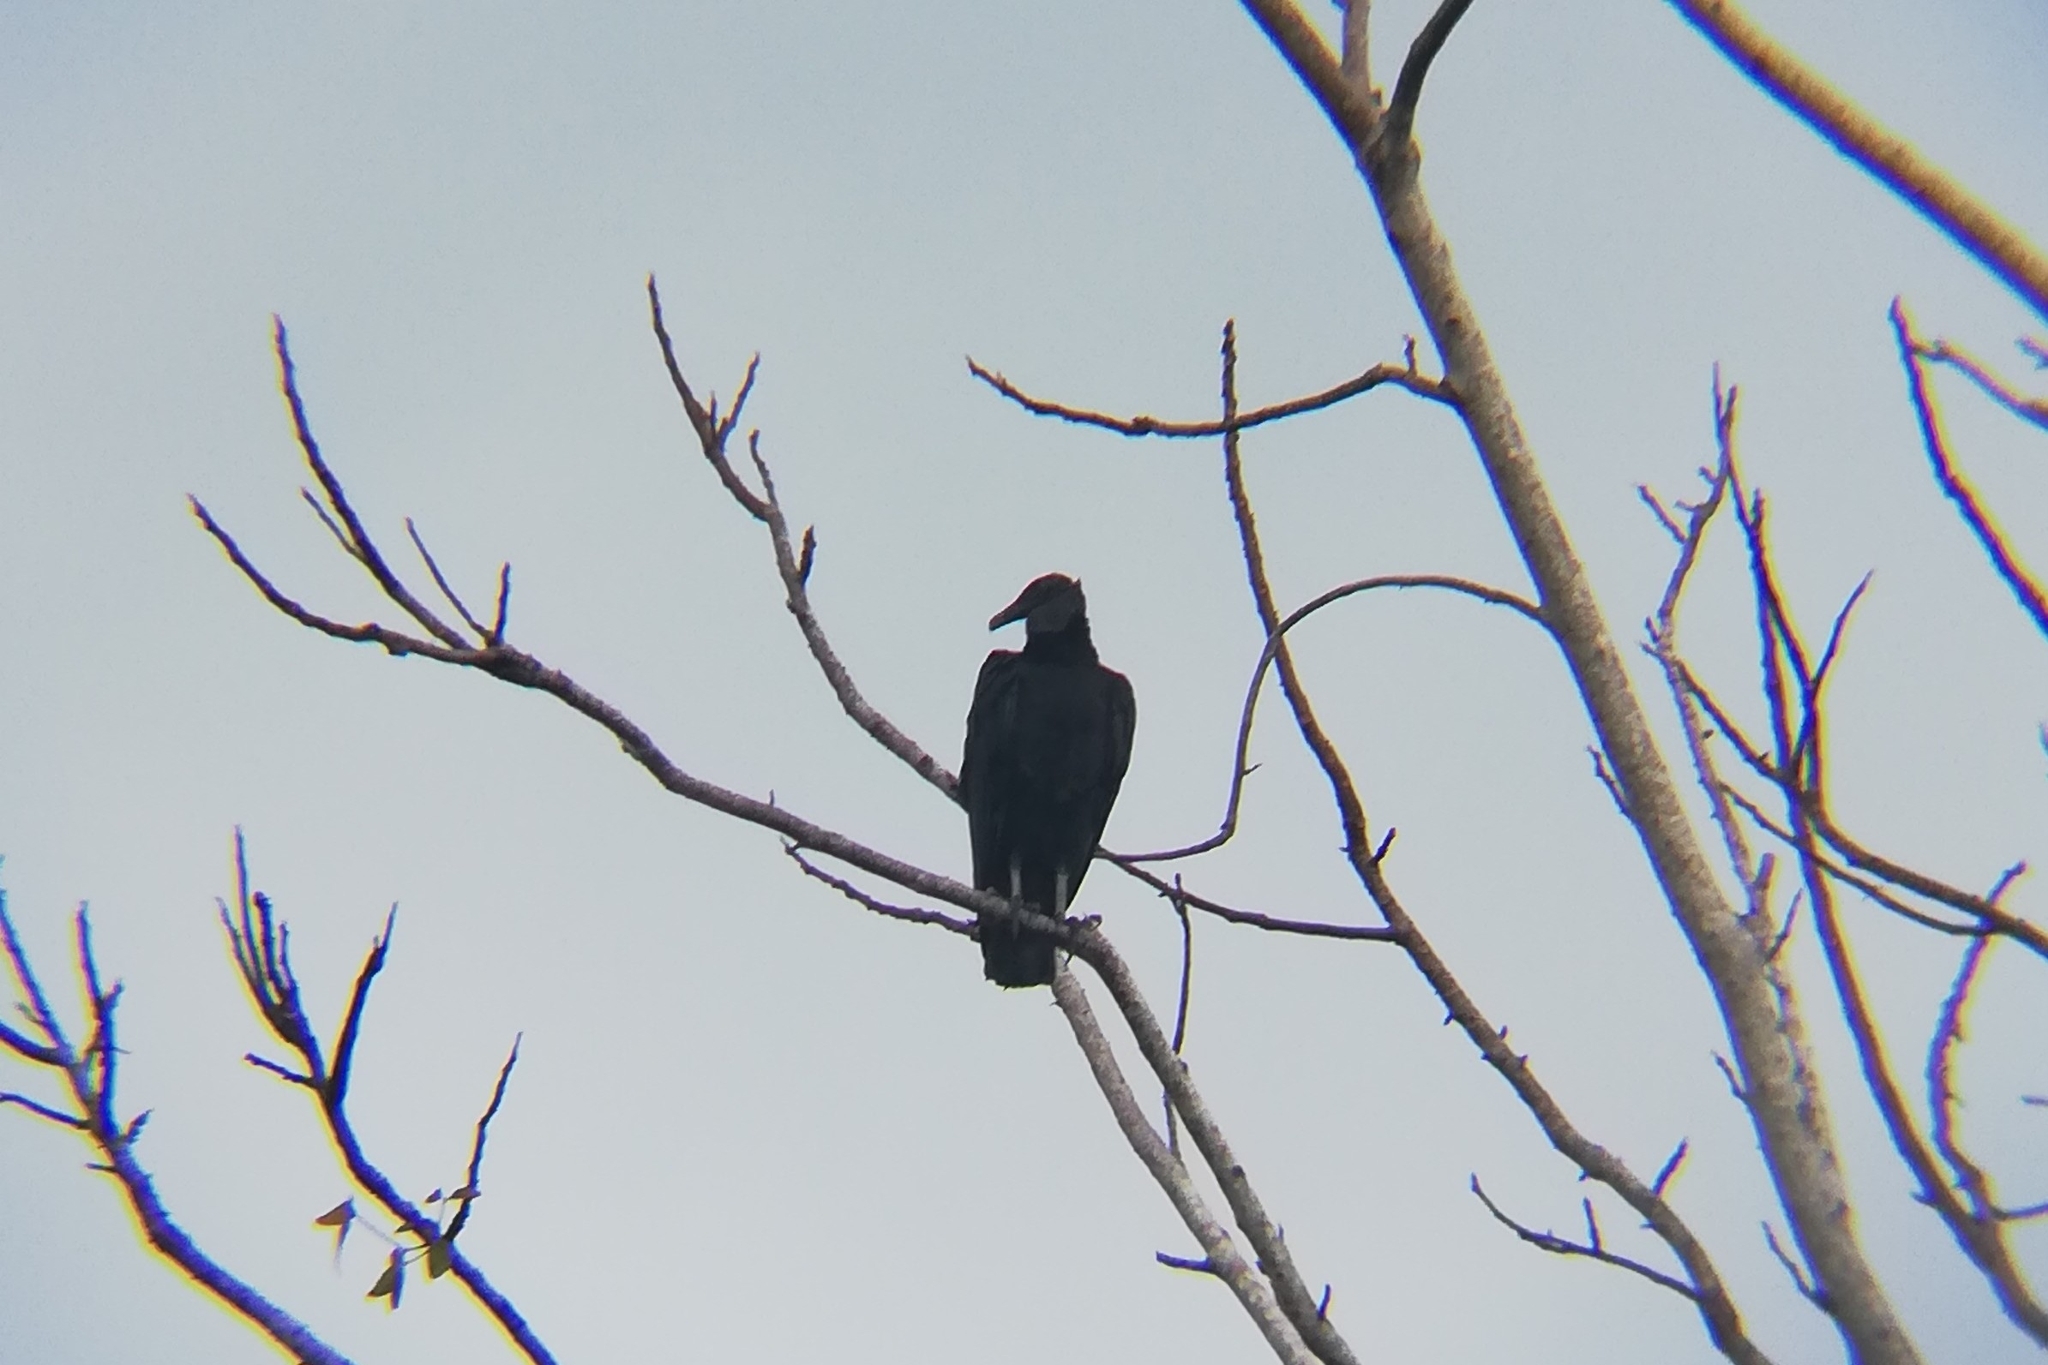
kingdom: Animalia
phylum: Chordata
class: Aves
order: Accipitriformes
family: Cathartidae
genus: Coragyps
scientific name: Coragyps atratus
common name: Black vulture
